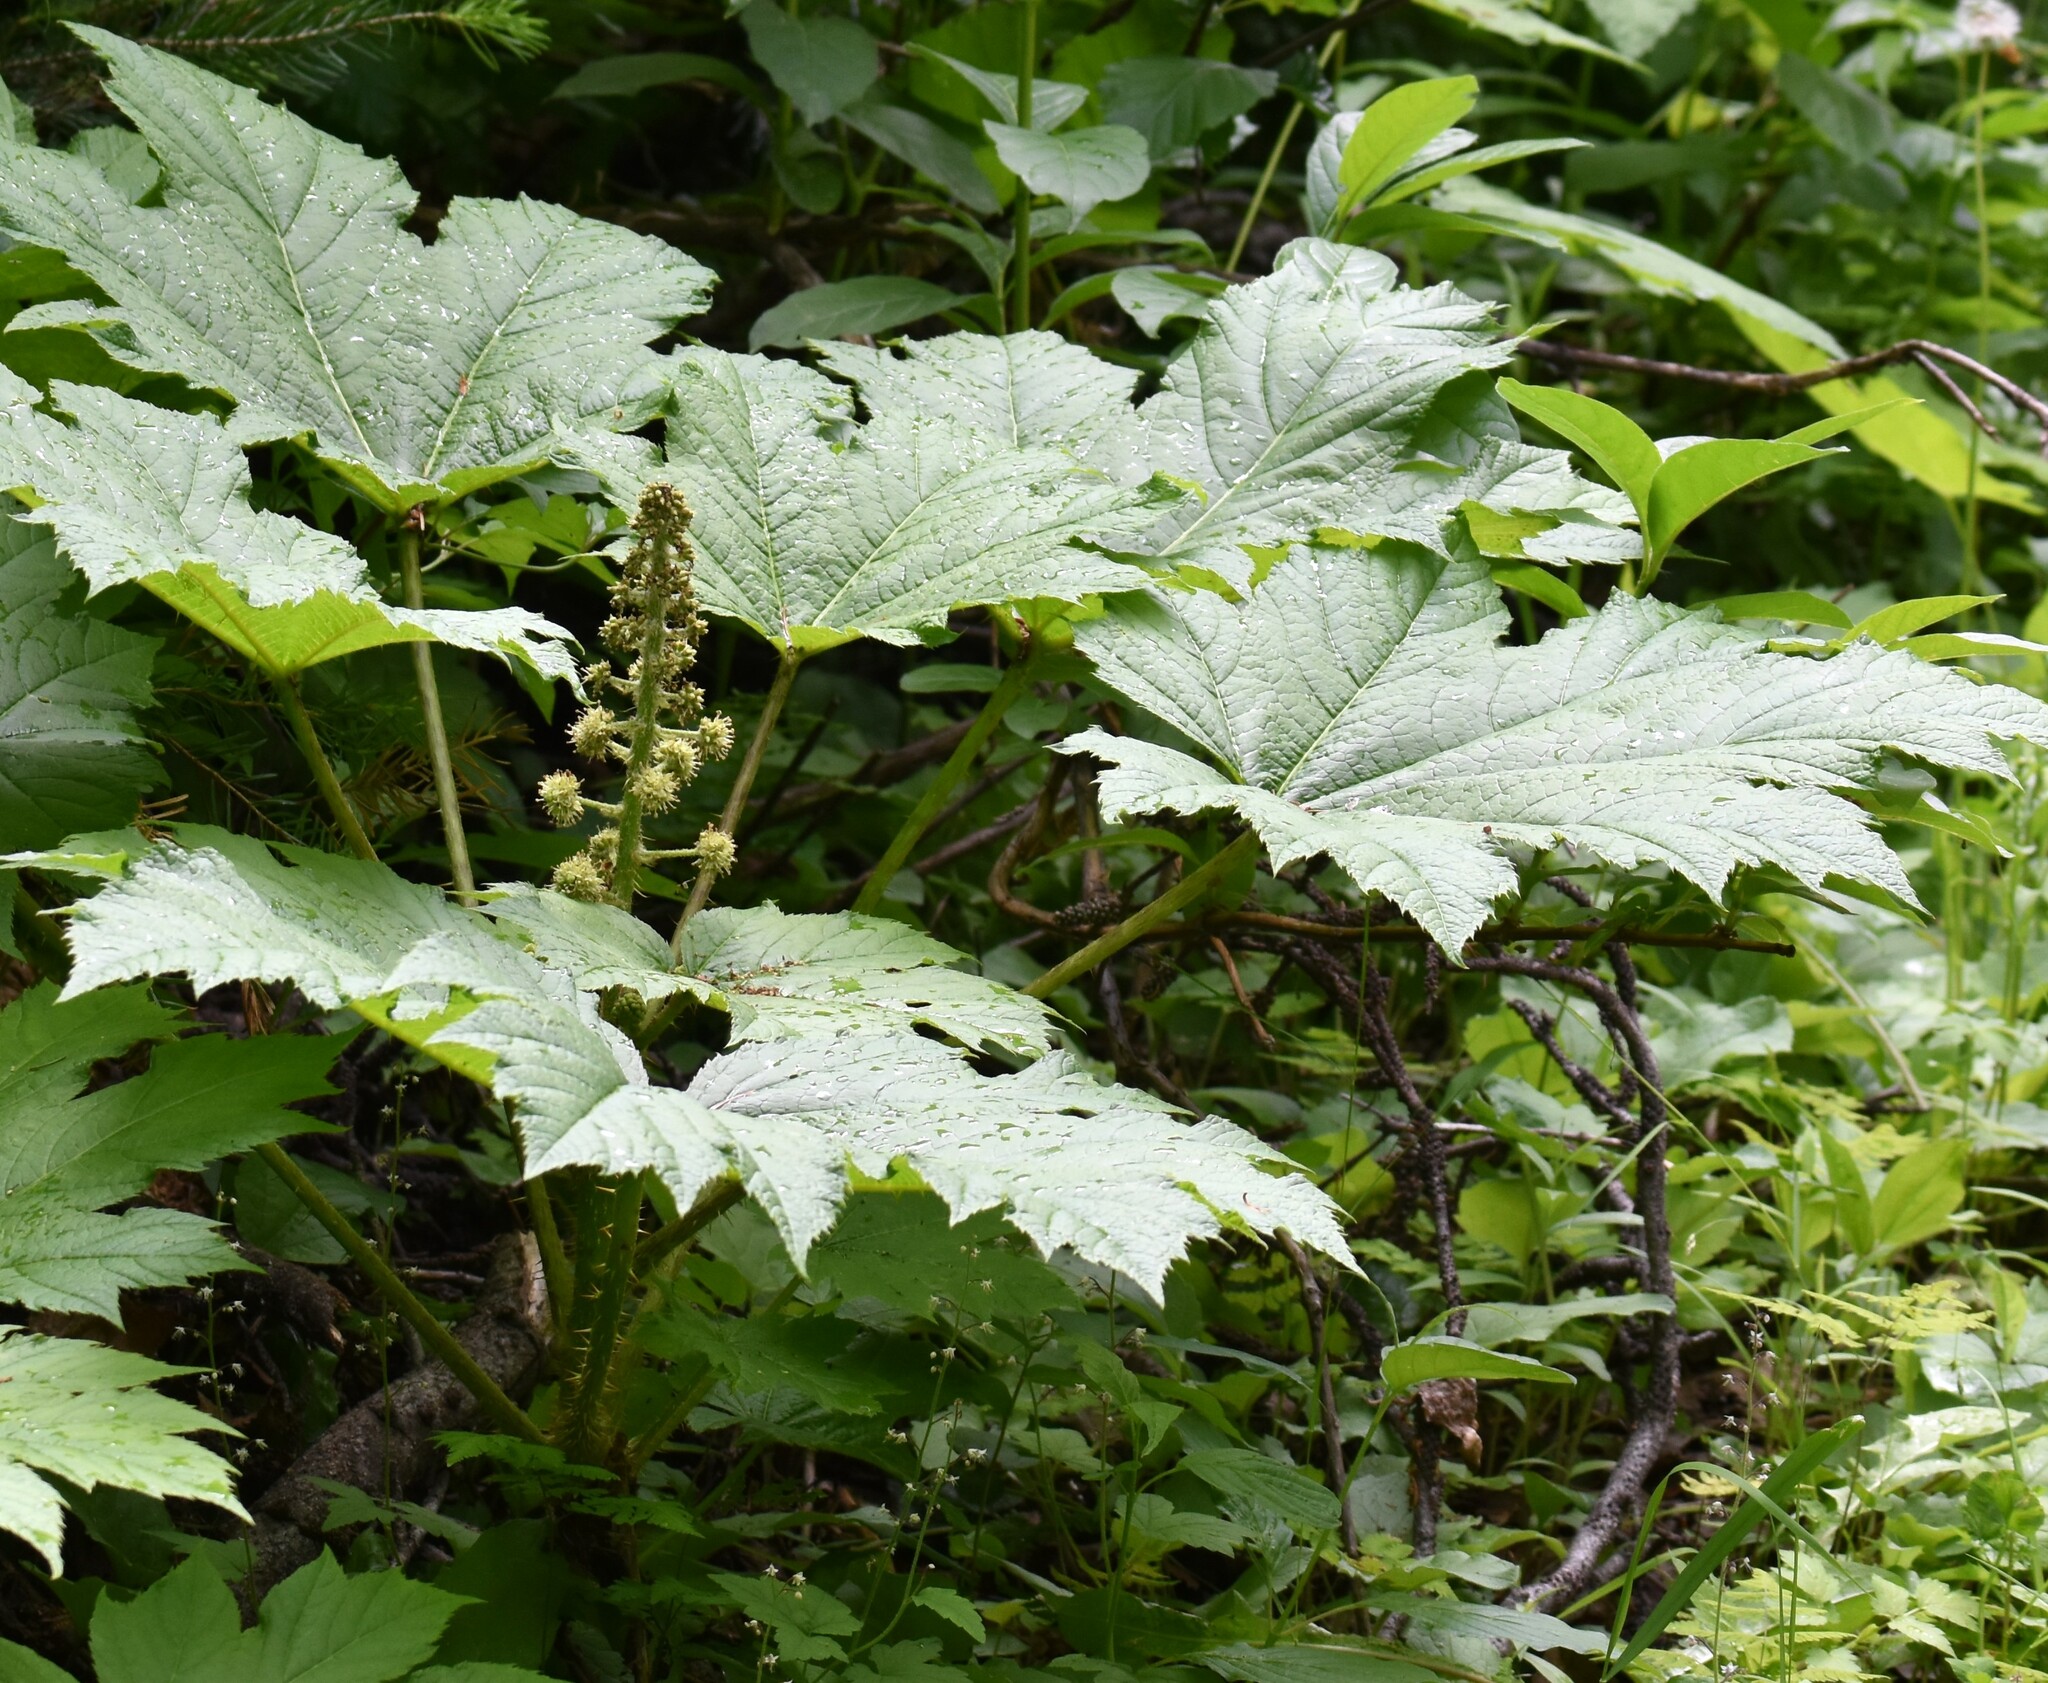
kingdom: Plantae
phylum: Tracheophyta
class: Magnoliopsida
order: Apiales
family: Araliaceae
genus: Oplopanax
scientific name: Oplopanax horridus
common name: Devil's walking-stick
